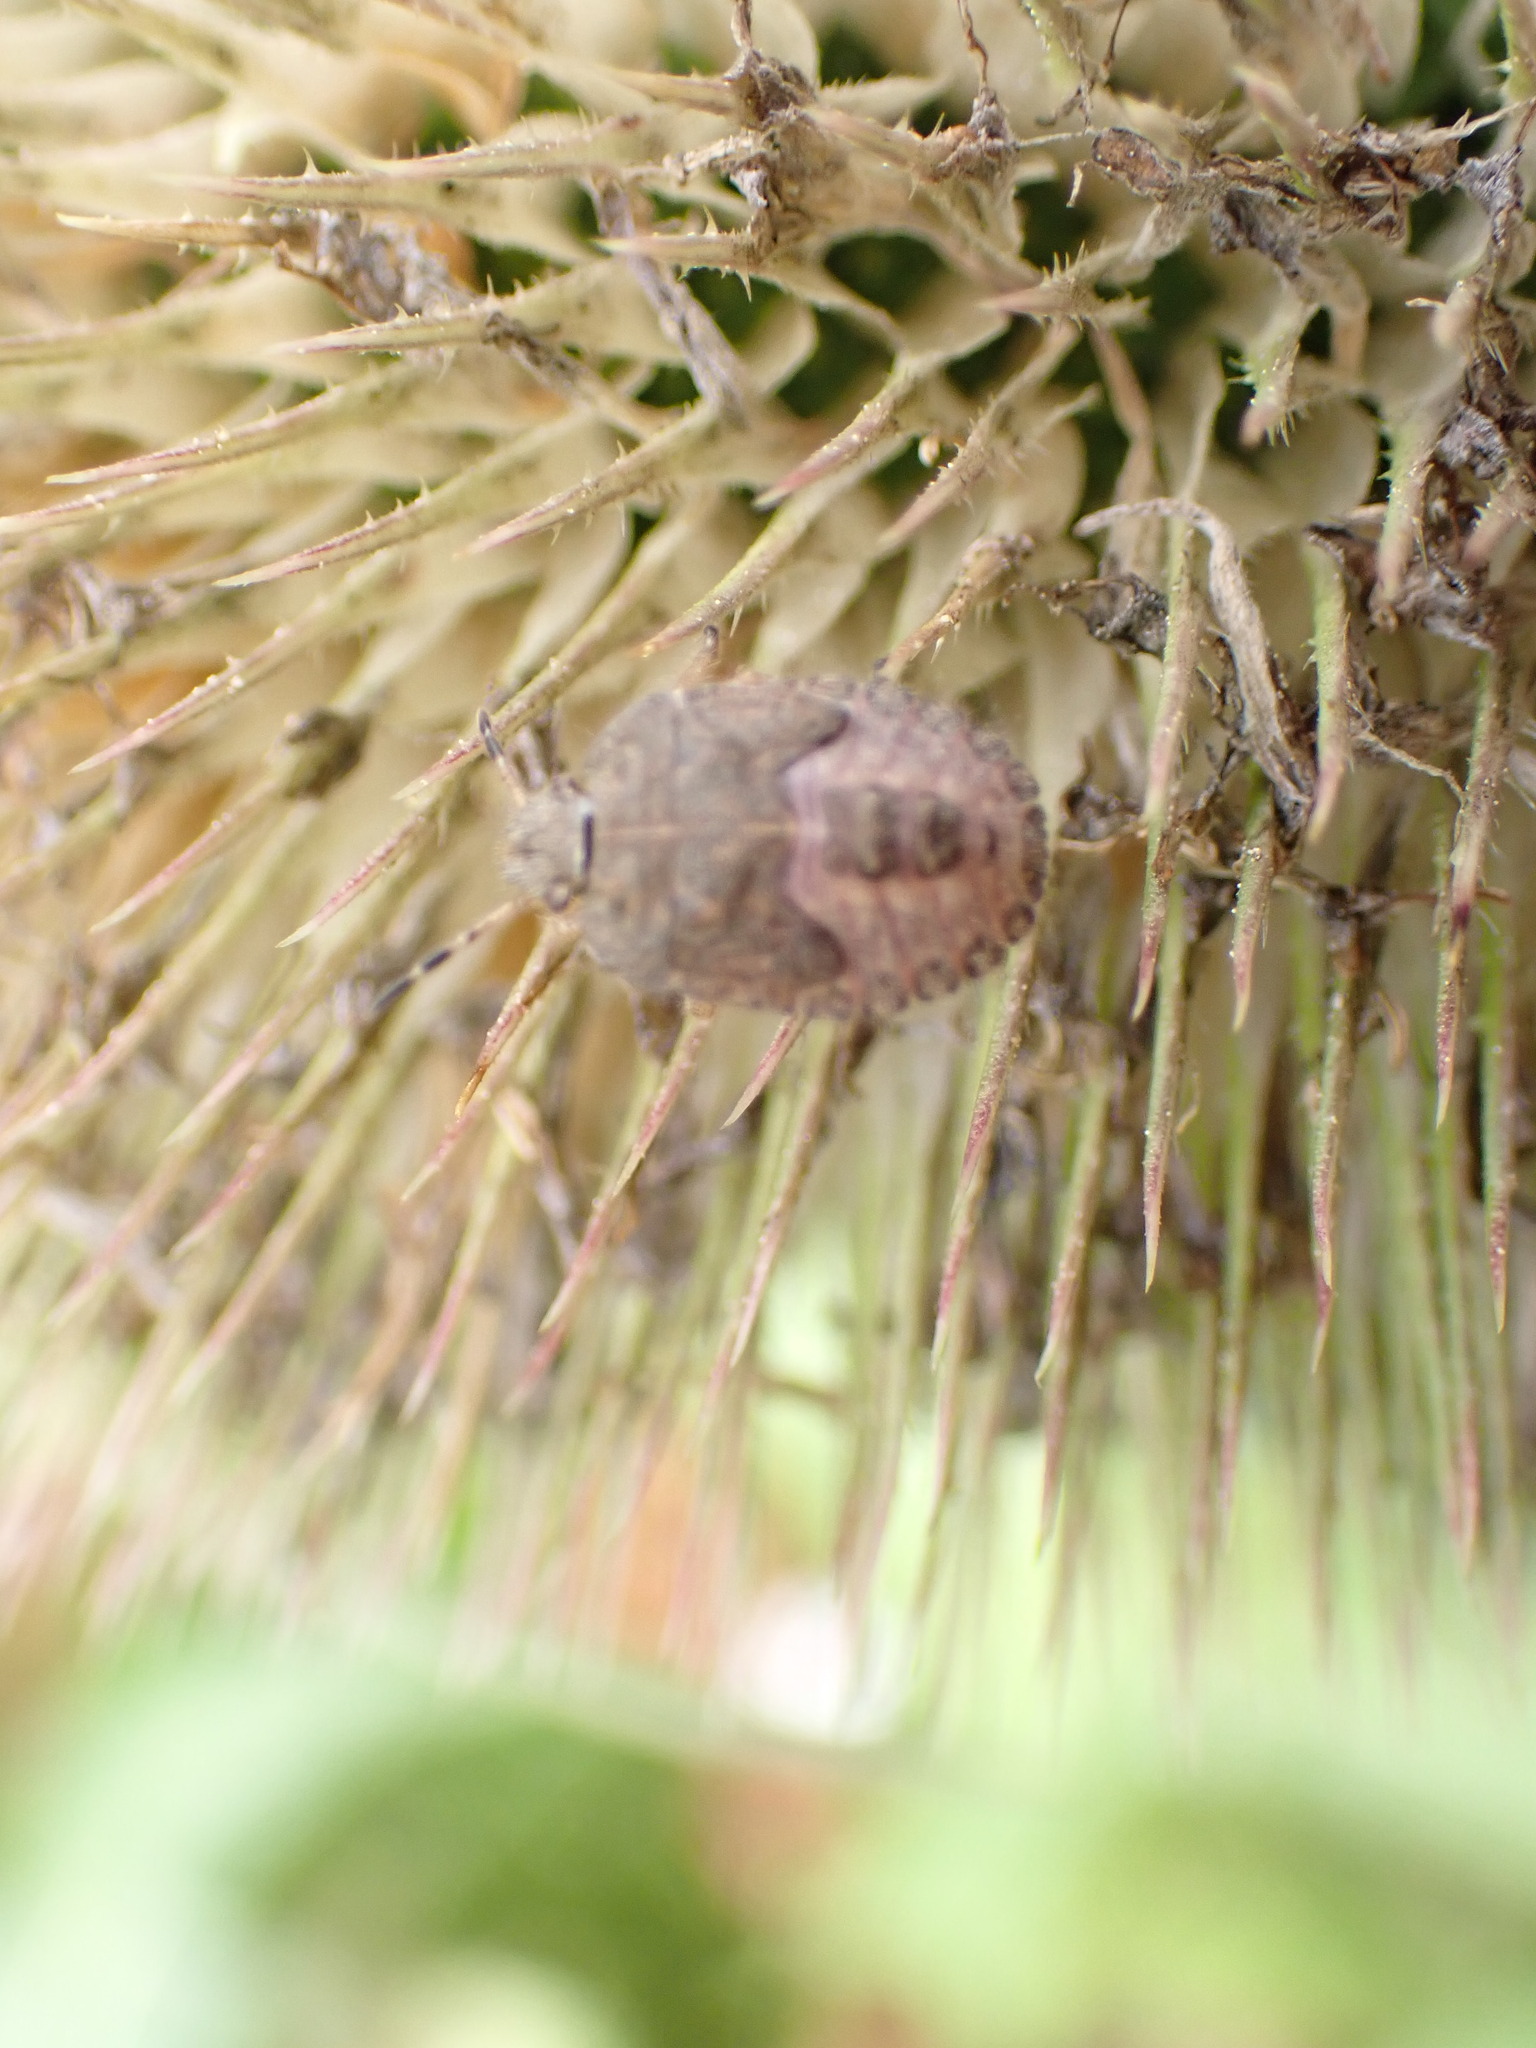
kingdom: Animalia
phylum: Arthropoda
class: Insecta
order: Hemiptera
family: Pentatomidae
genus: Dolycoris
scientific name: Dolycoris baccarum
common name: Sloe bug
